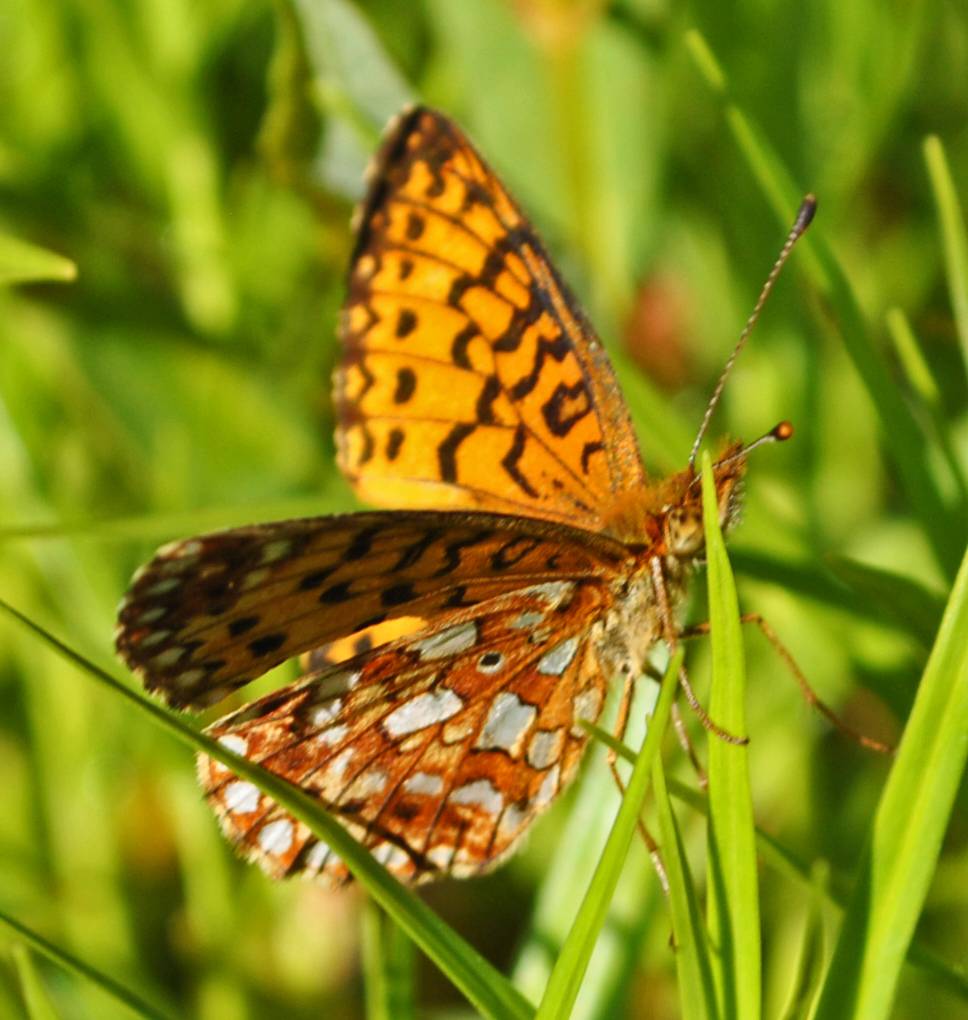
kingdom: Animalia
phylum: Arthropoda
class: Insecta
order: Lepidoptera
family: Nymphalidae
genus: Boloria
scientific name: Boloria
